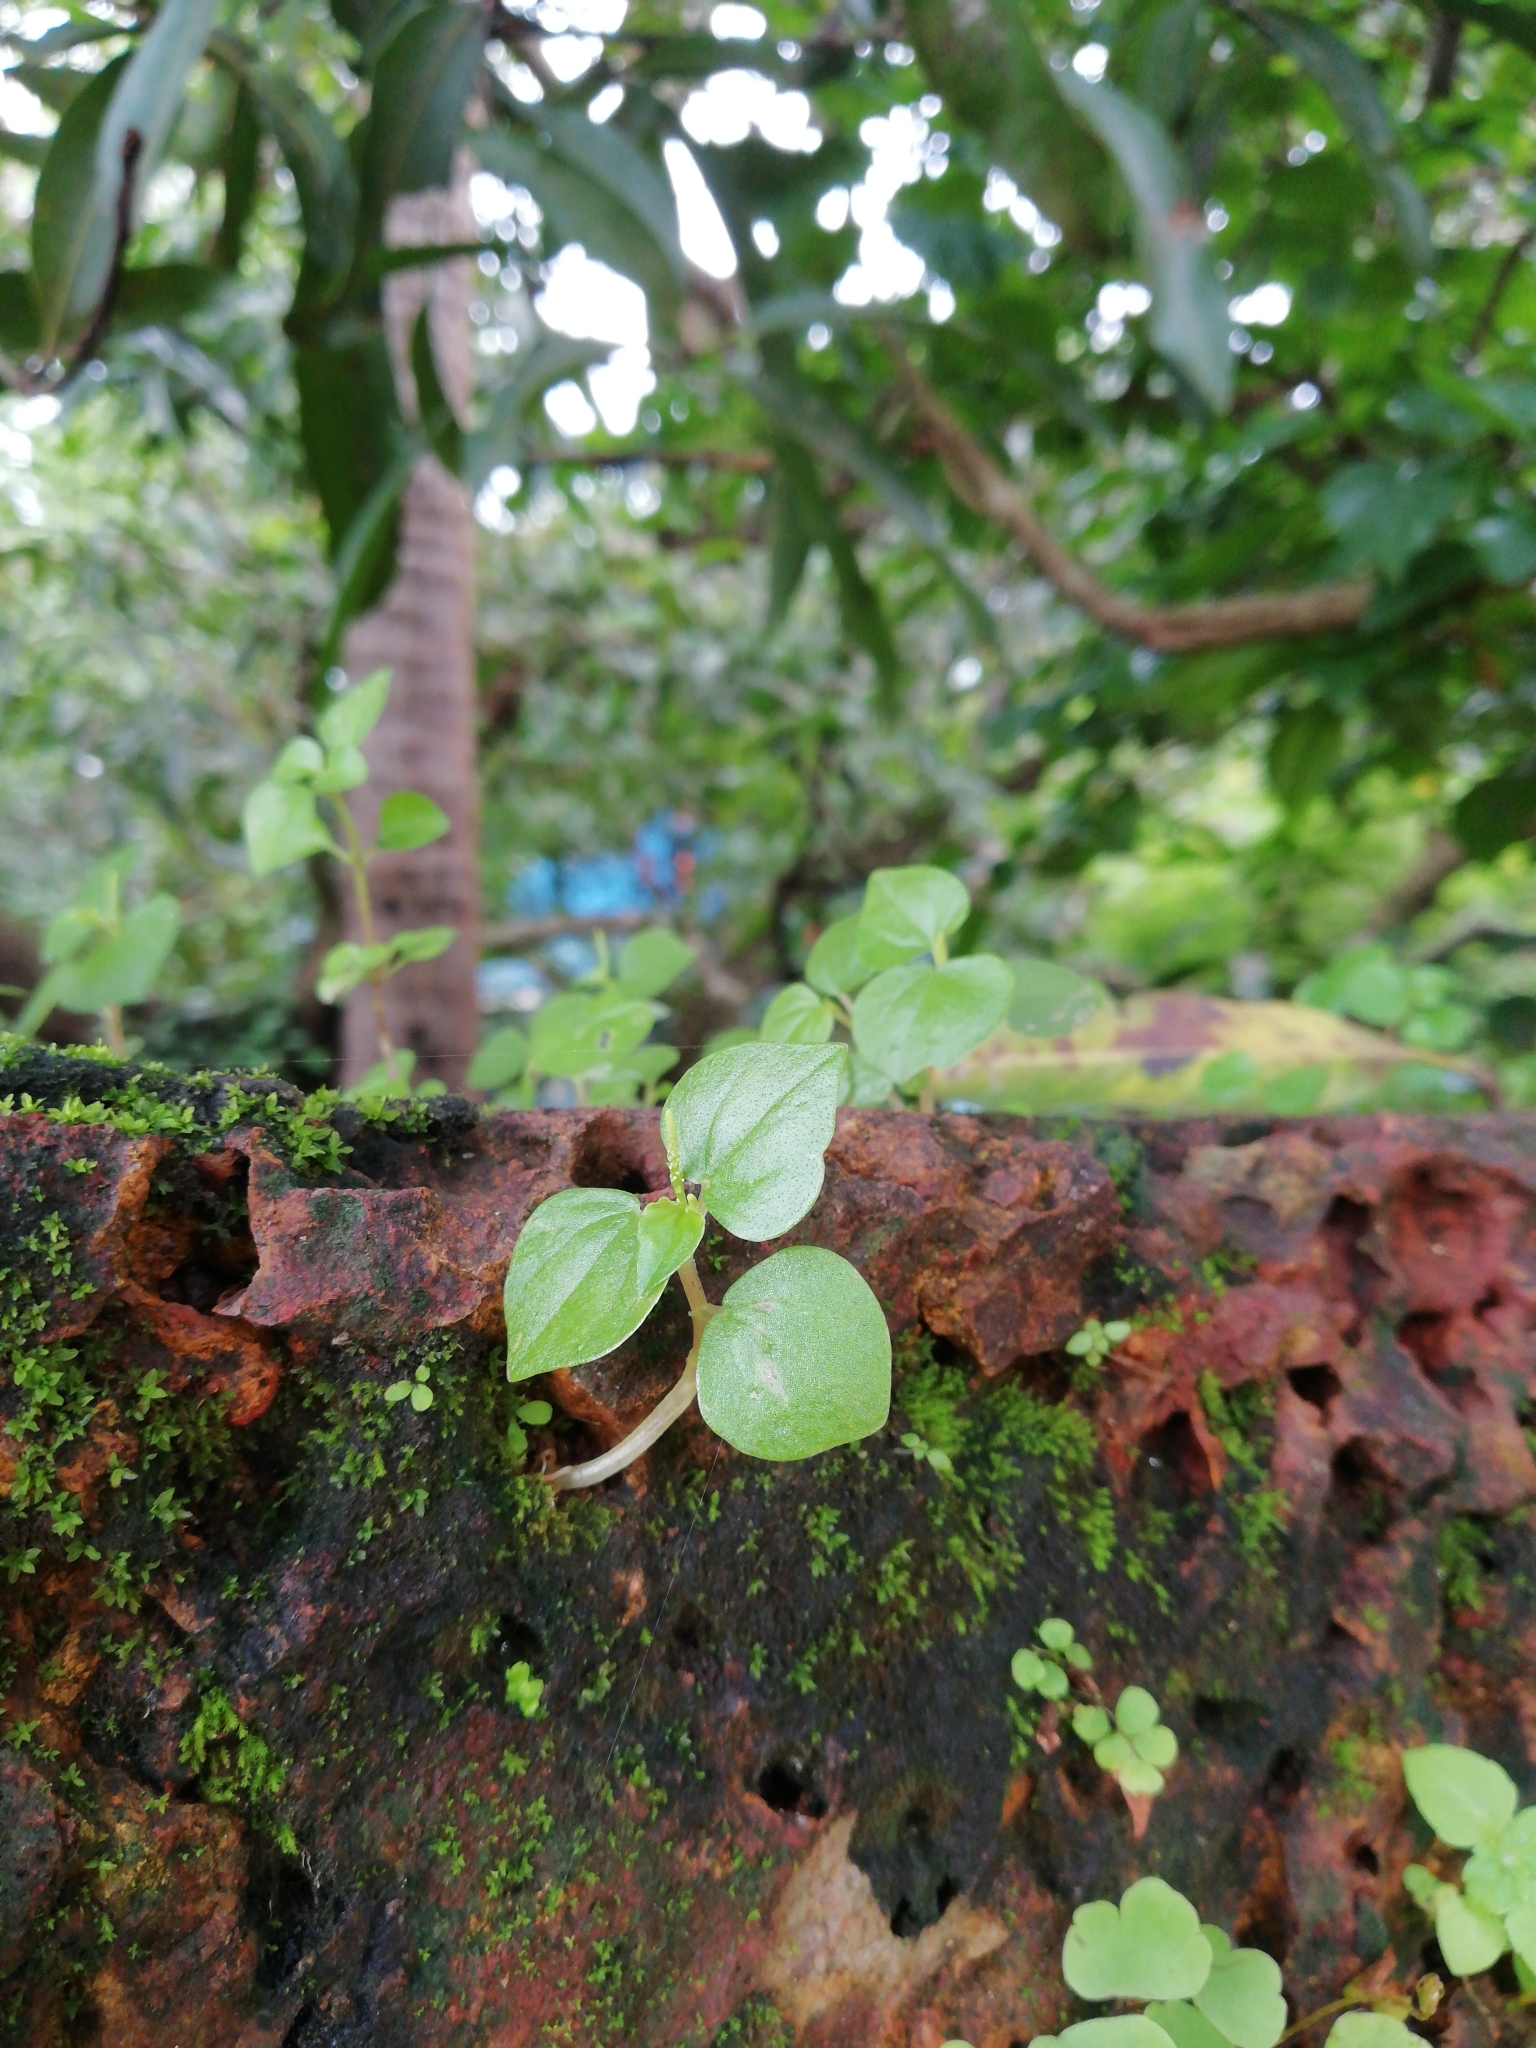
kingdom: Plantae
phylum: Tracheophyta
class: Magnoliopsida
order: Piperales
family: Piperaceae
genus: Peperomia
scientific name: Peperomia pellucida
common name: Man to man
